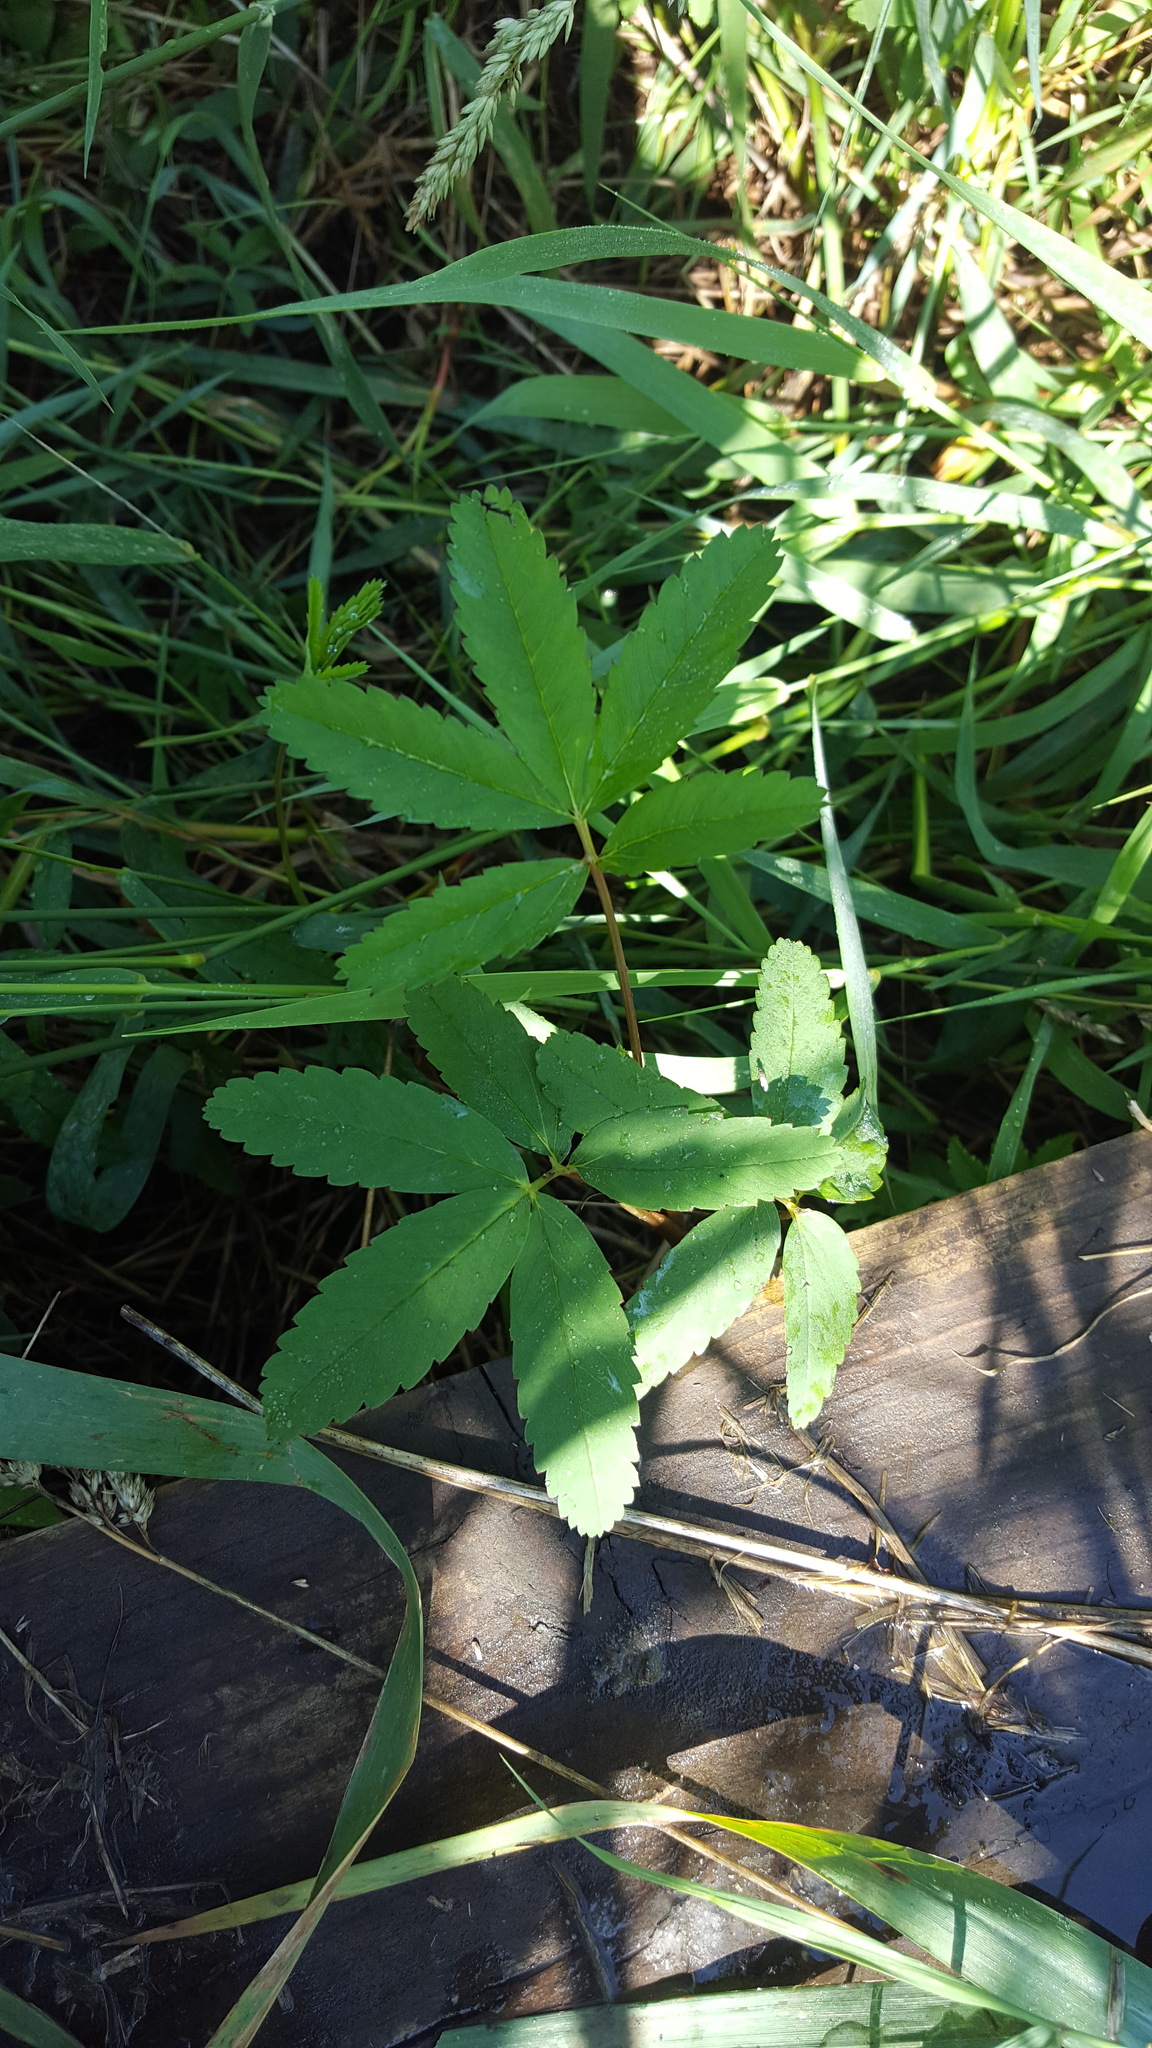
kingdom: Plantae
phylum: Tracheophyta
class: Magnoliopsida
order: Rosales
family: Rosaceae
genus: Comarum
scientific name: Comarum palustre
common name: Marsh cinquefoil
